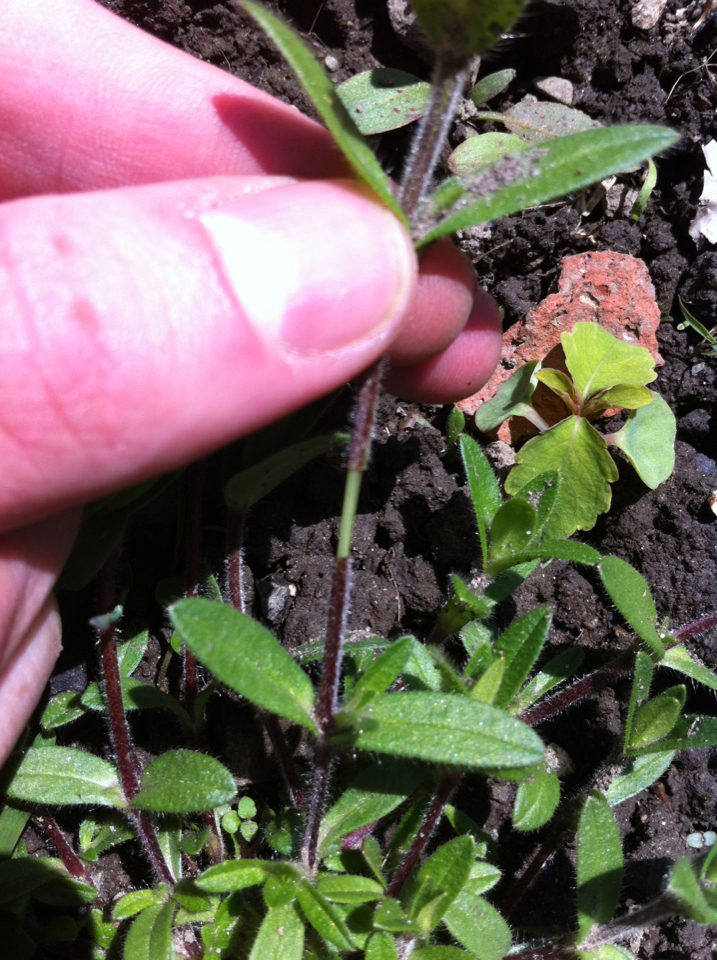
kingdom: Plantae
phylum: Tracheophyta
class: Magnoliopsida
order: Caryophyllales
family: Caryophyllaceae
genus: Cerastium
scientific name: Cerastium fontanum
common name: Common mouse-ear
